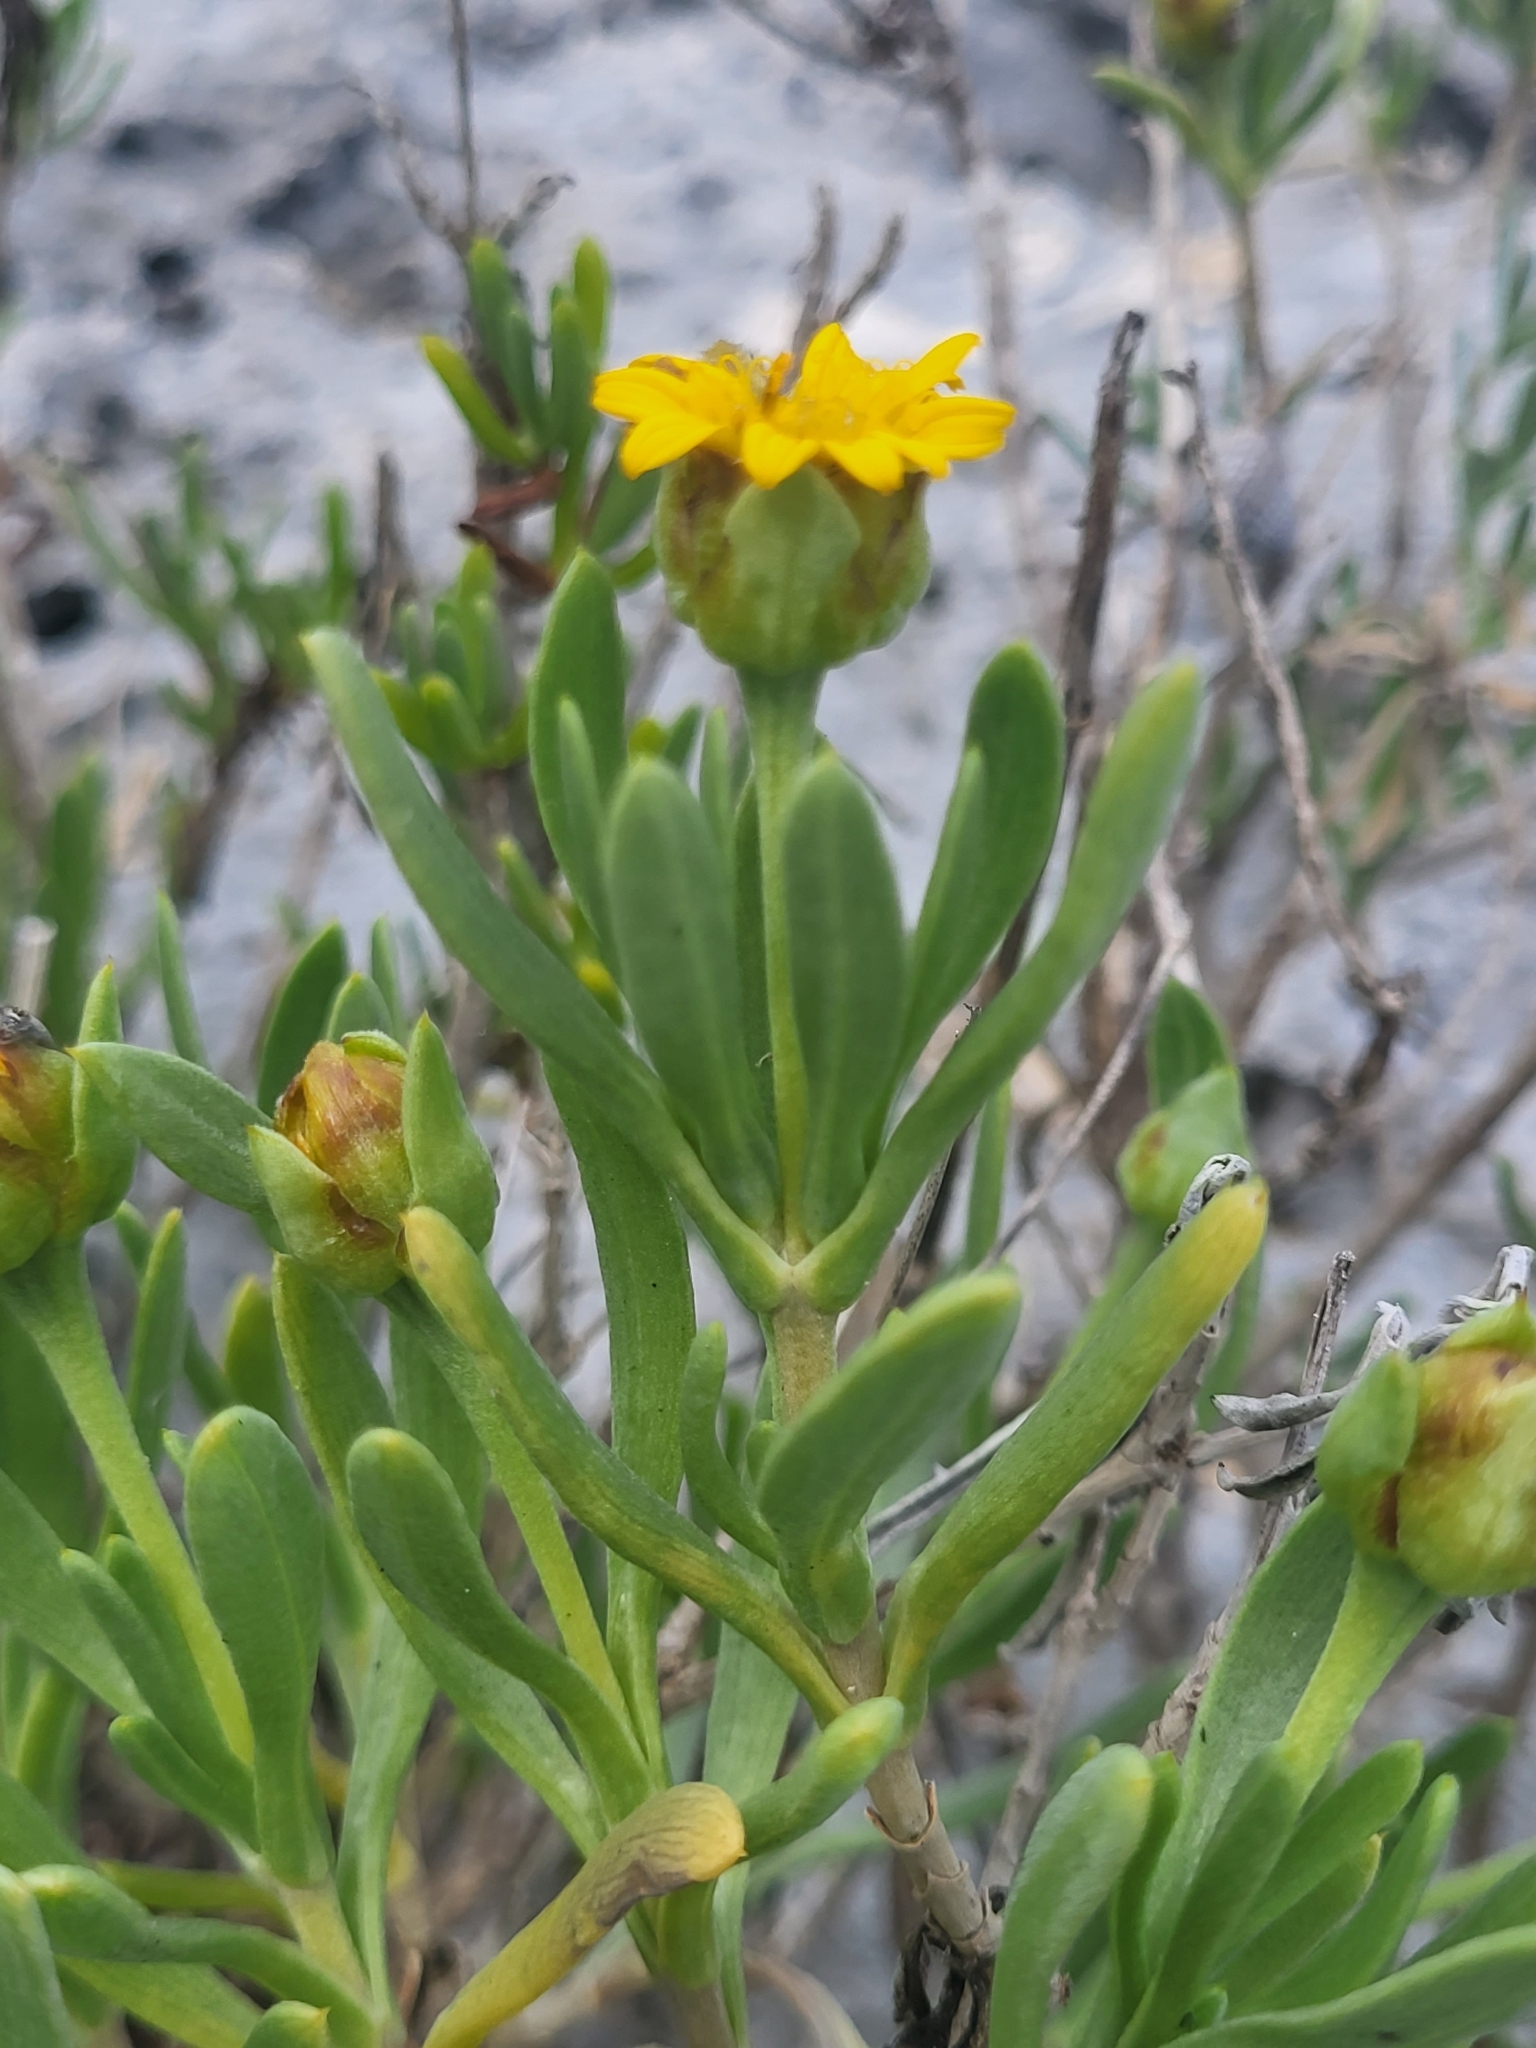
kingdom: Plantae
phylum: Tracheophyta
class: Magnoliopsida
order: Asterales
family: Asteraceae
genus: Borrichia
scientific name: Borrichia arborescens
